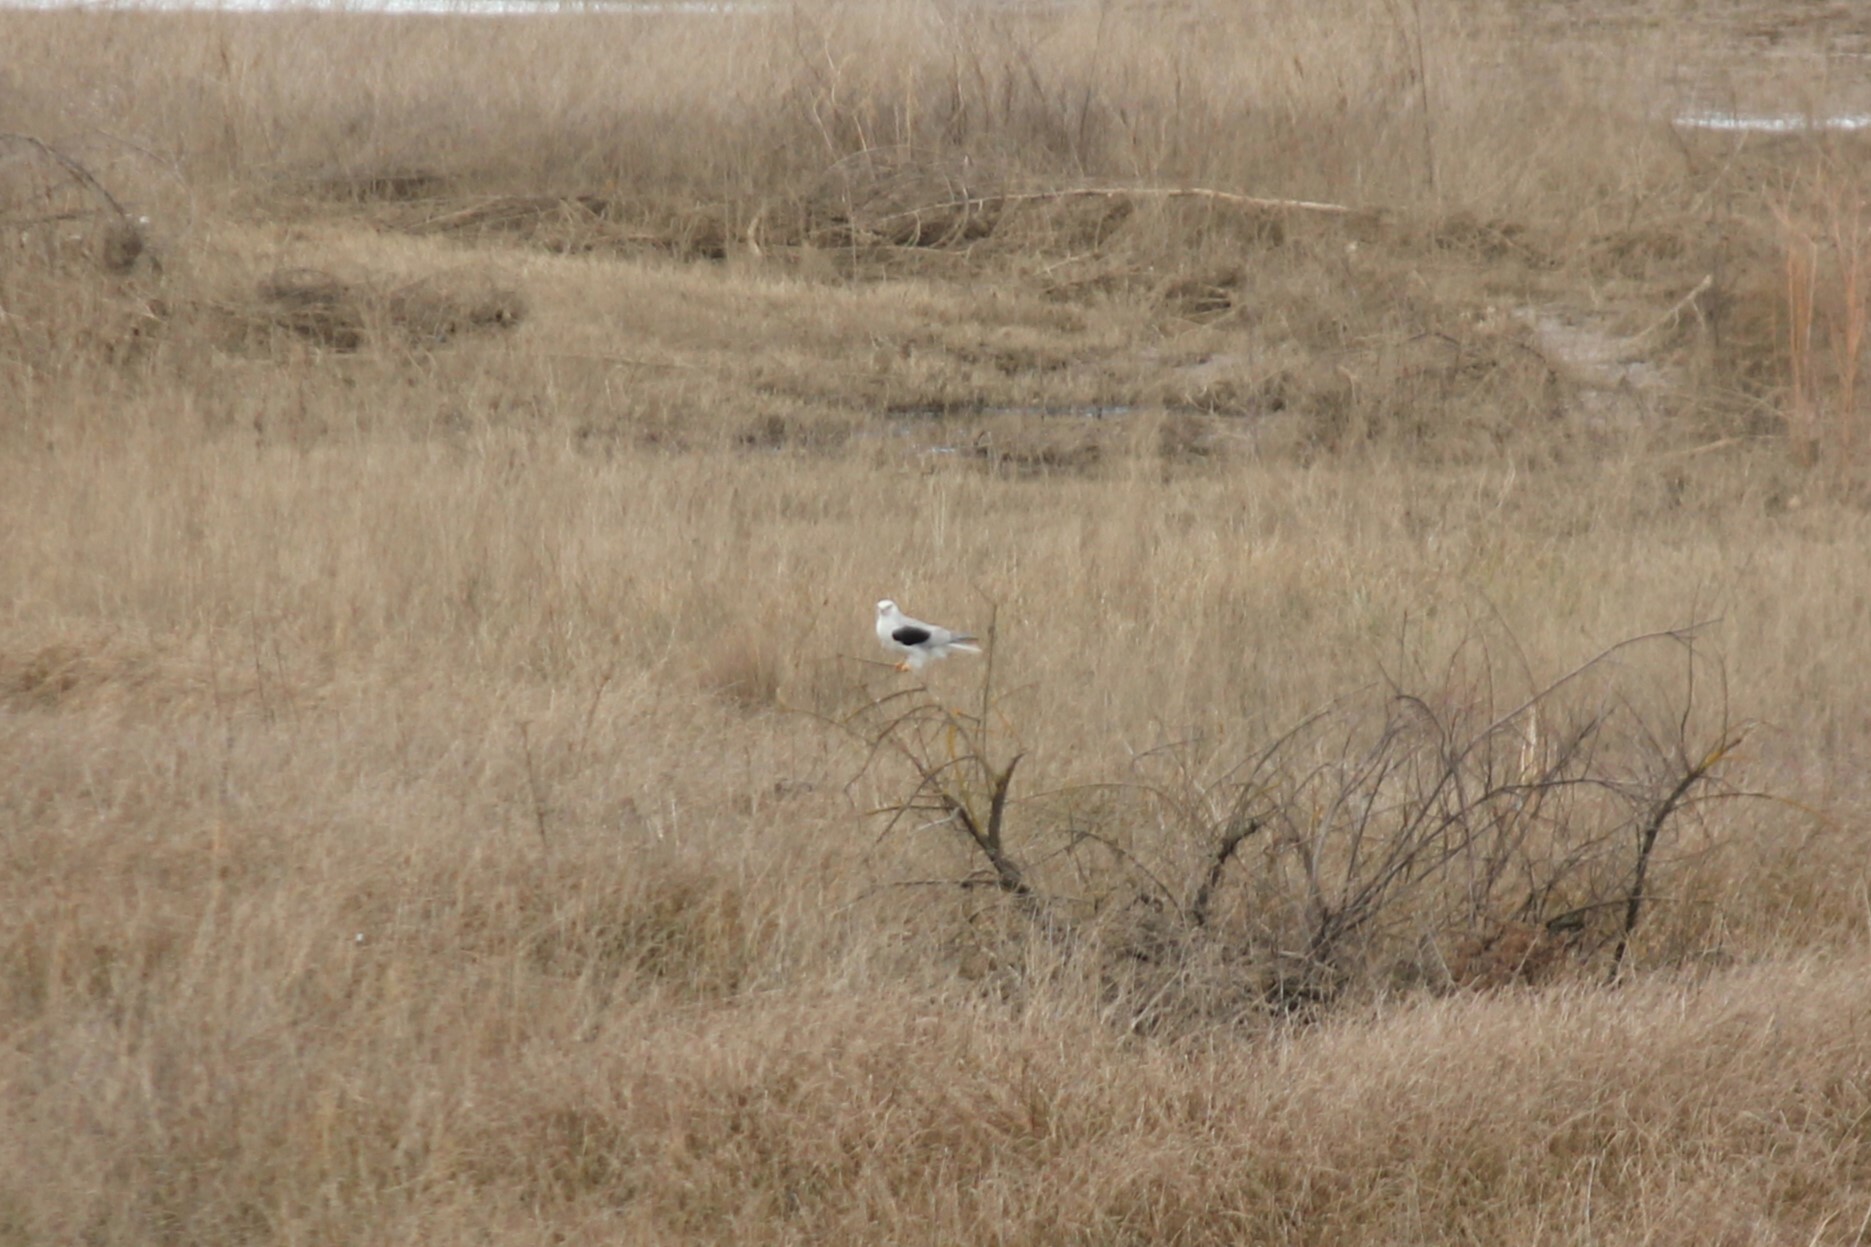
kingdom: Animalia
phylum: Chordata
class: Aves
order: Accipitriformes
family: Accipitridae
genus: Elanus
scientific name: Elanus leucurus
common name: White-tailed kite
